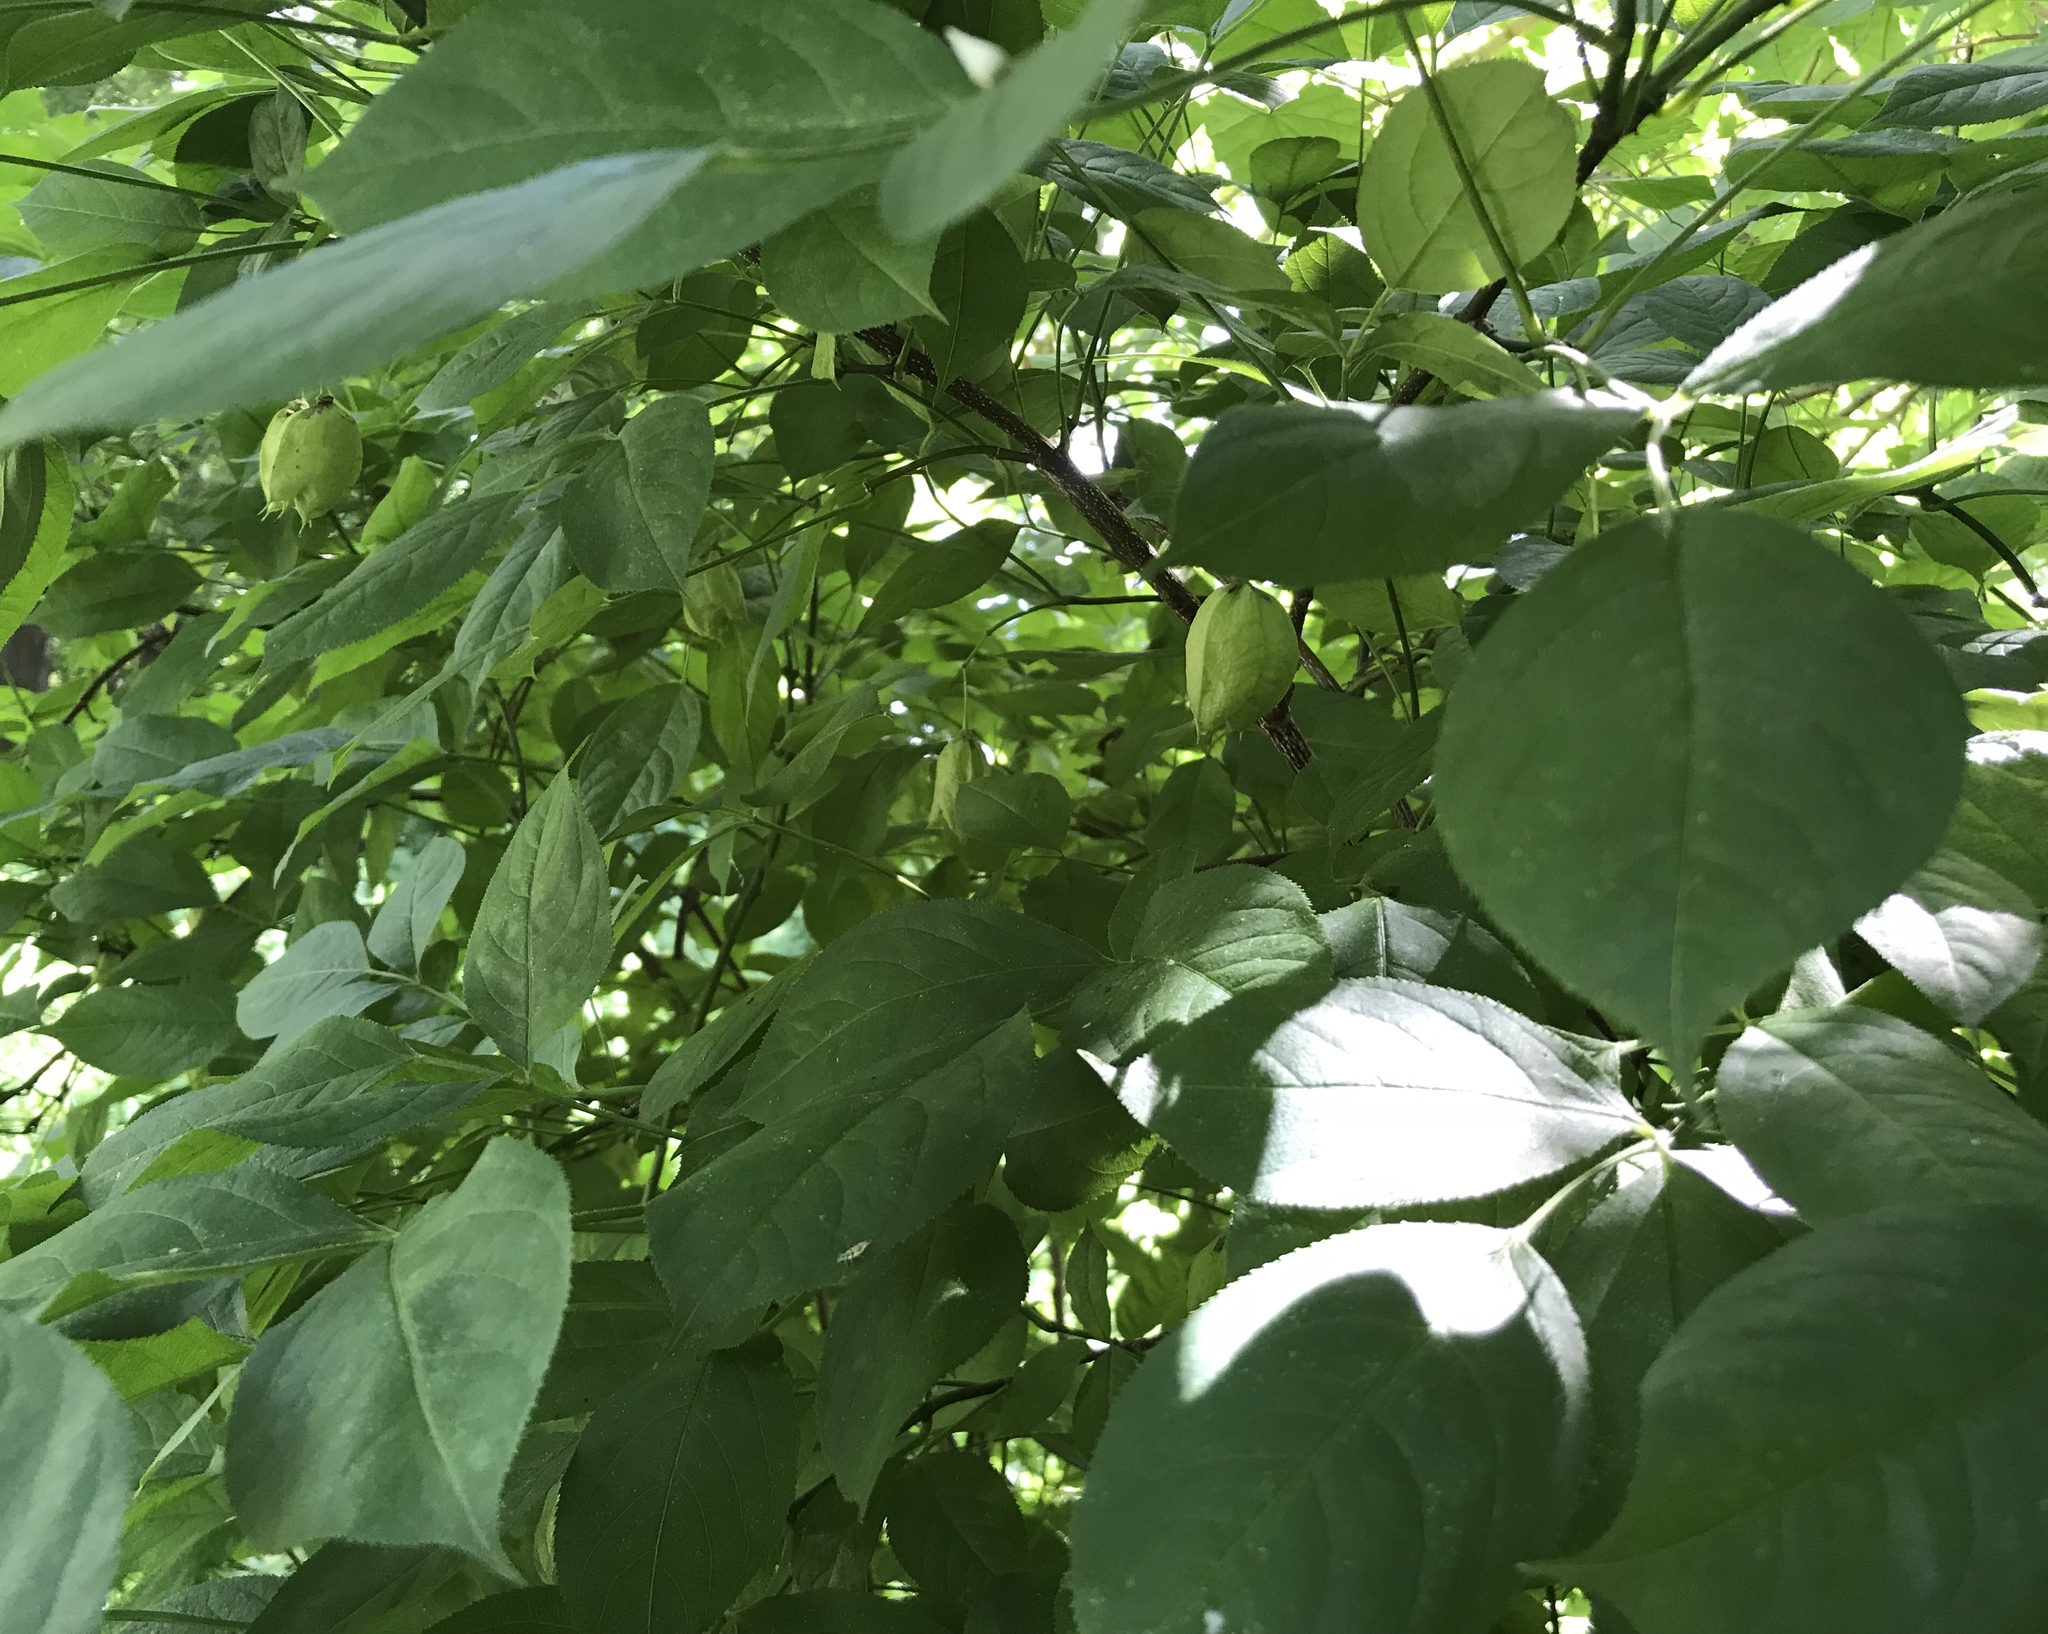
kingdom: Plantae
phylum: Tracheophyta
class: Magnoliopsida
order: Crossosomatales
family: Staphyleaceae
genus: Staphylea
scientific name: Staphylea trifolia
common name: American bladdernut
